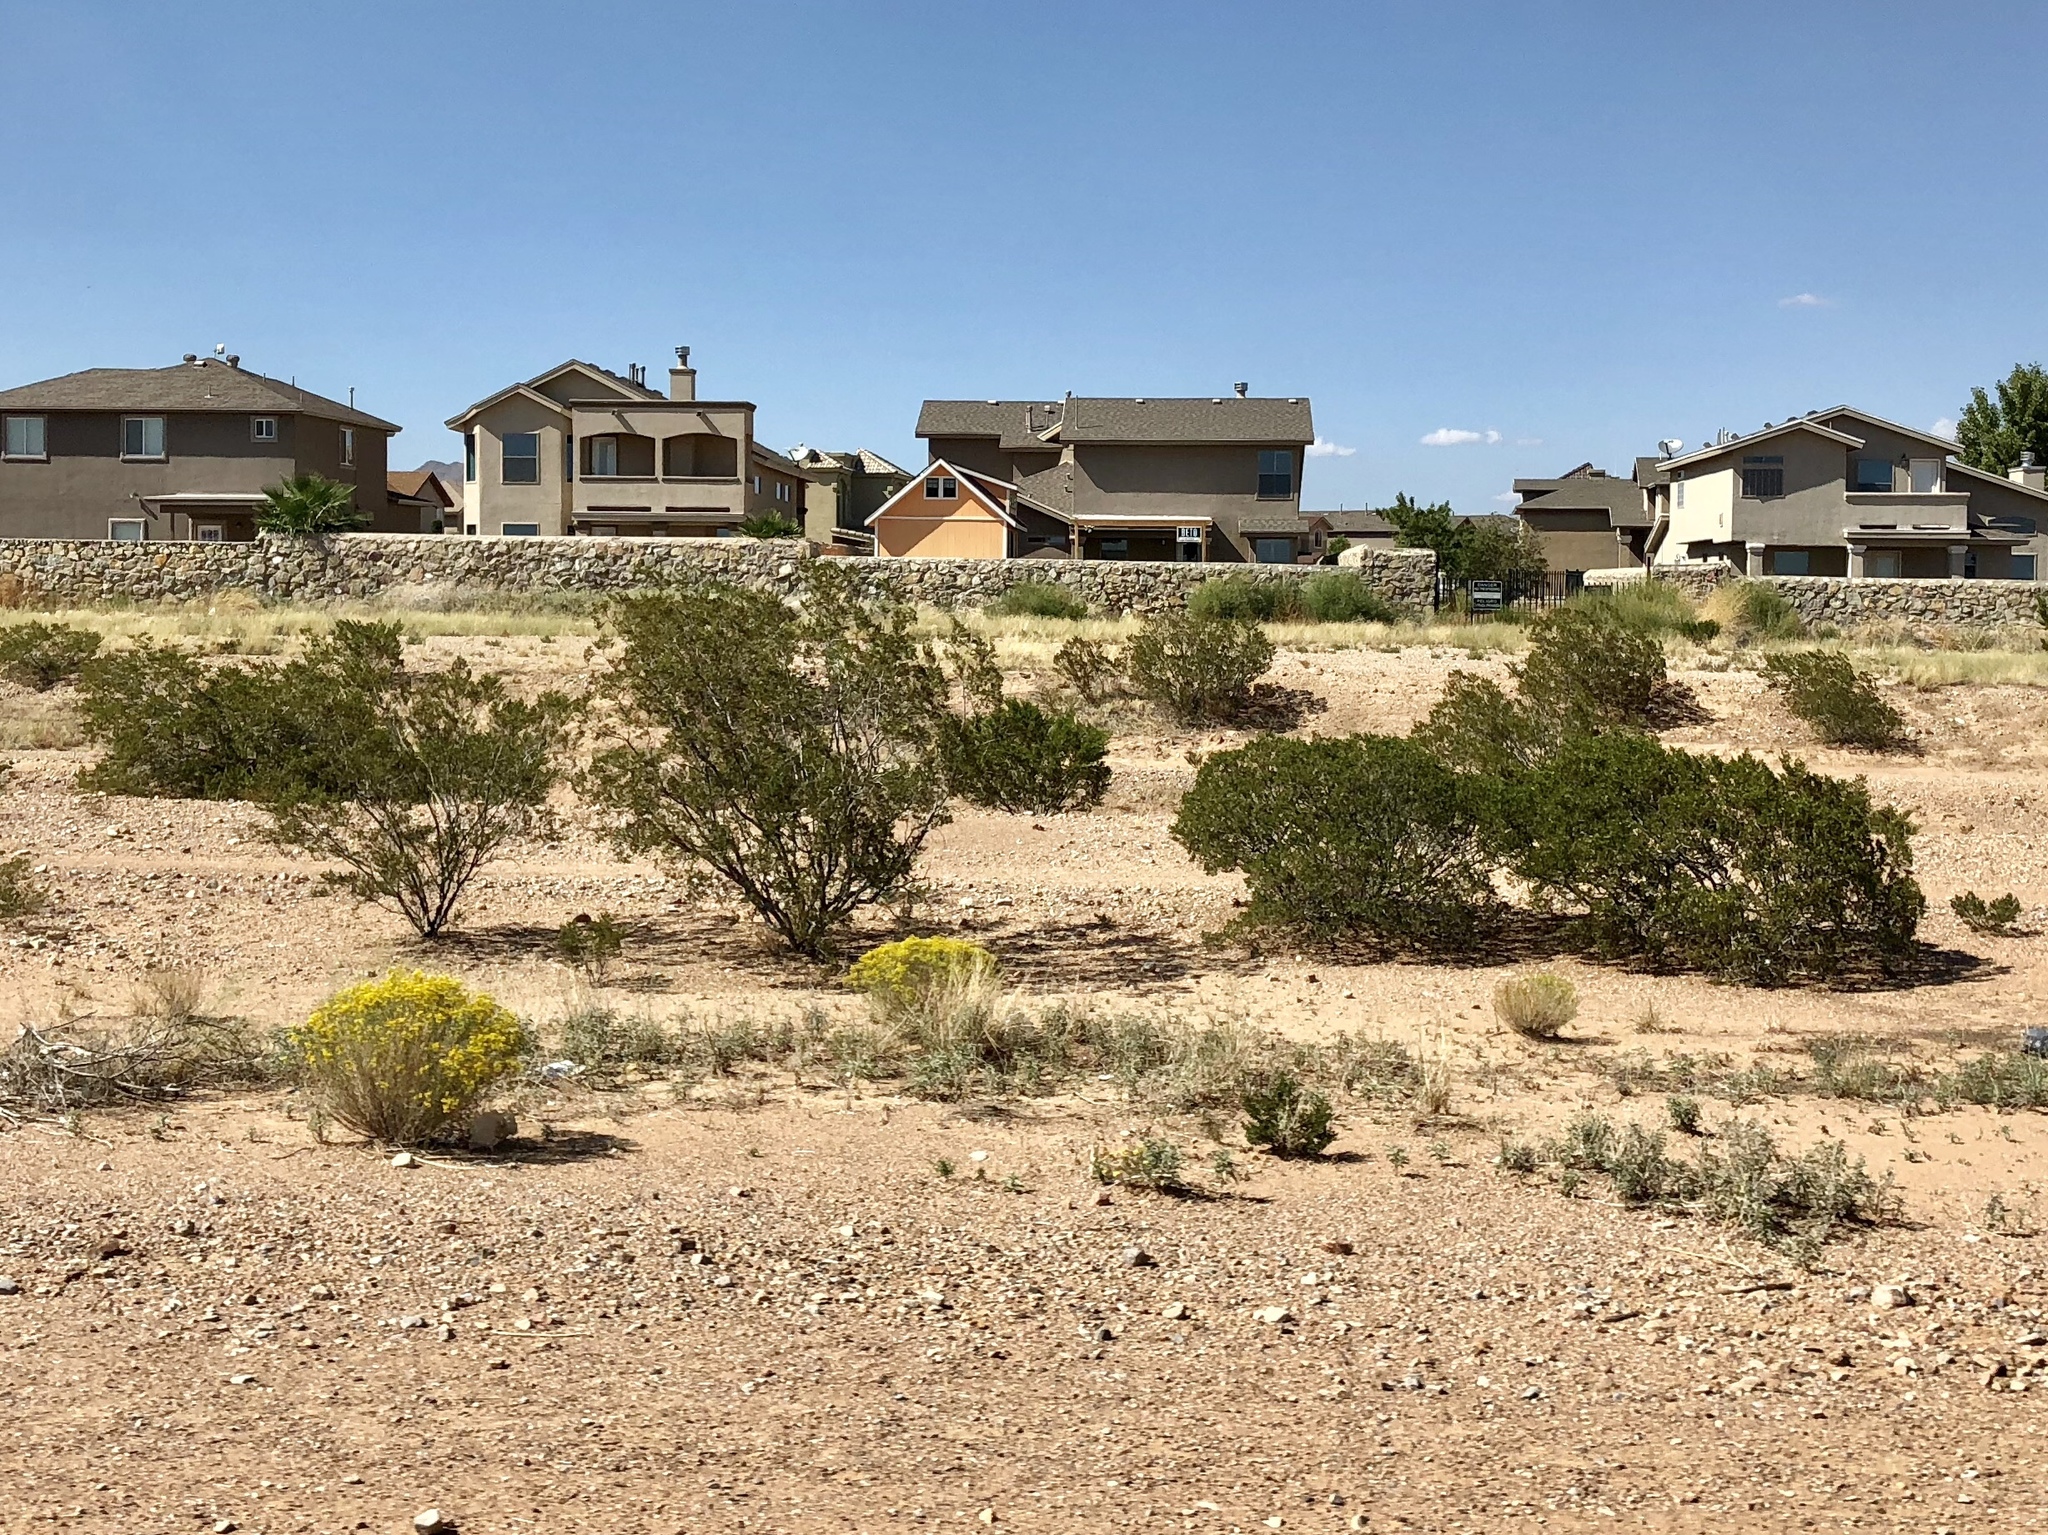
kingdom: Plantae
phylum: Tracheophyta
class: Magnoliopsida
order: Zygophyllales
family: Zygophyllaceae
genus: Larrea
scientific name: Larrea tridentata
